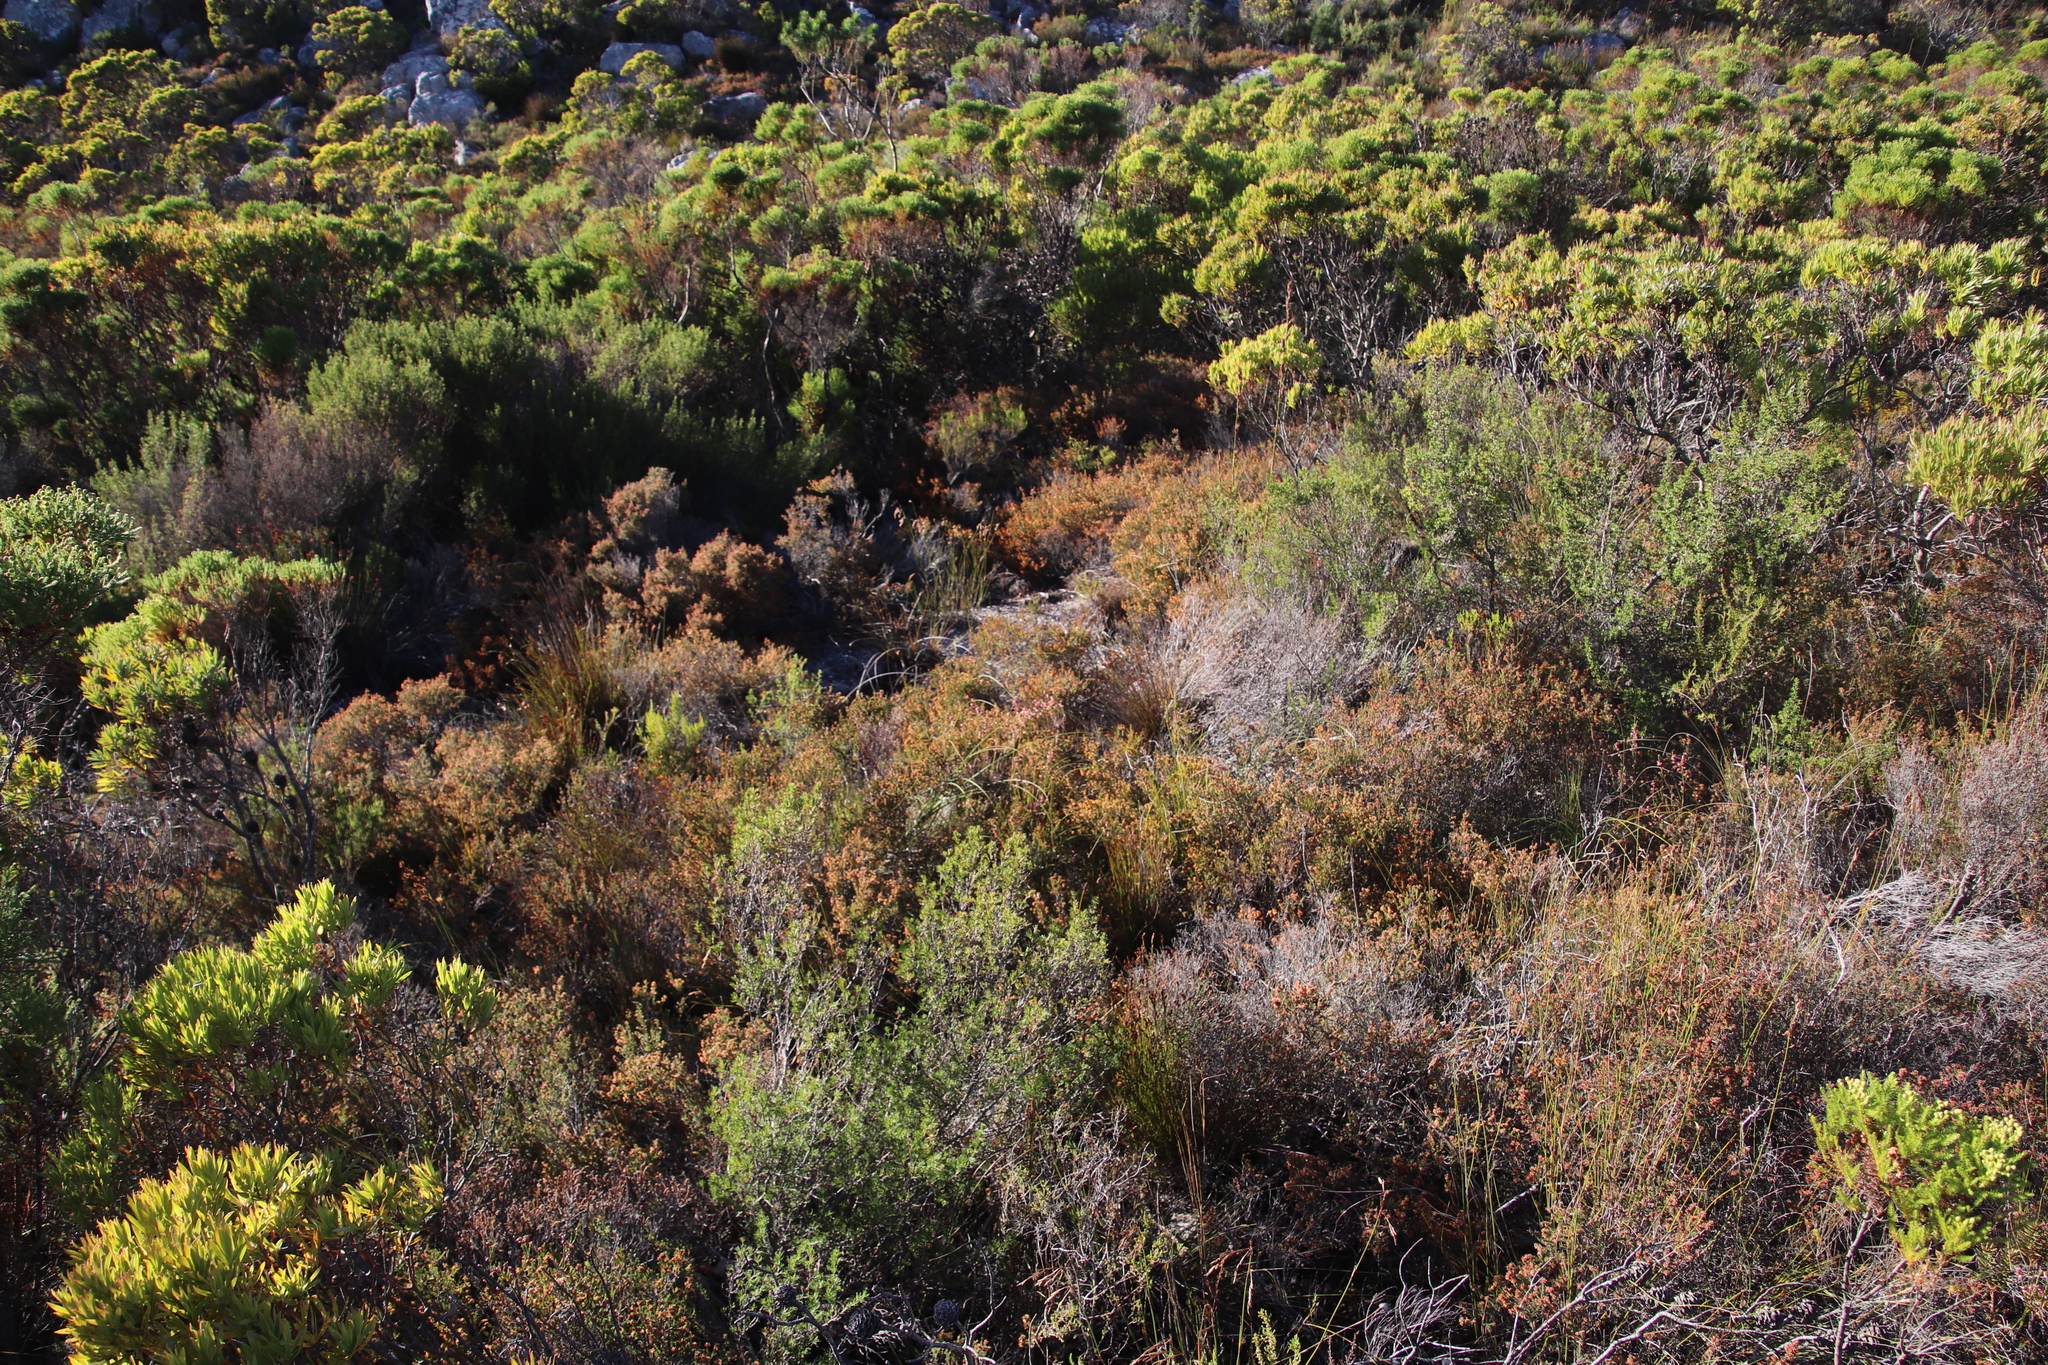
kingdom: Plantae
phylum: Tracheophyta
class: Magnoliopsida
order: Ericales
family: Ericaceae
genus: Erica
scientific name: Erica multumbellifera
